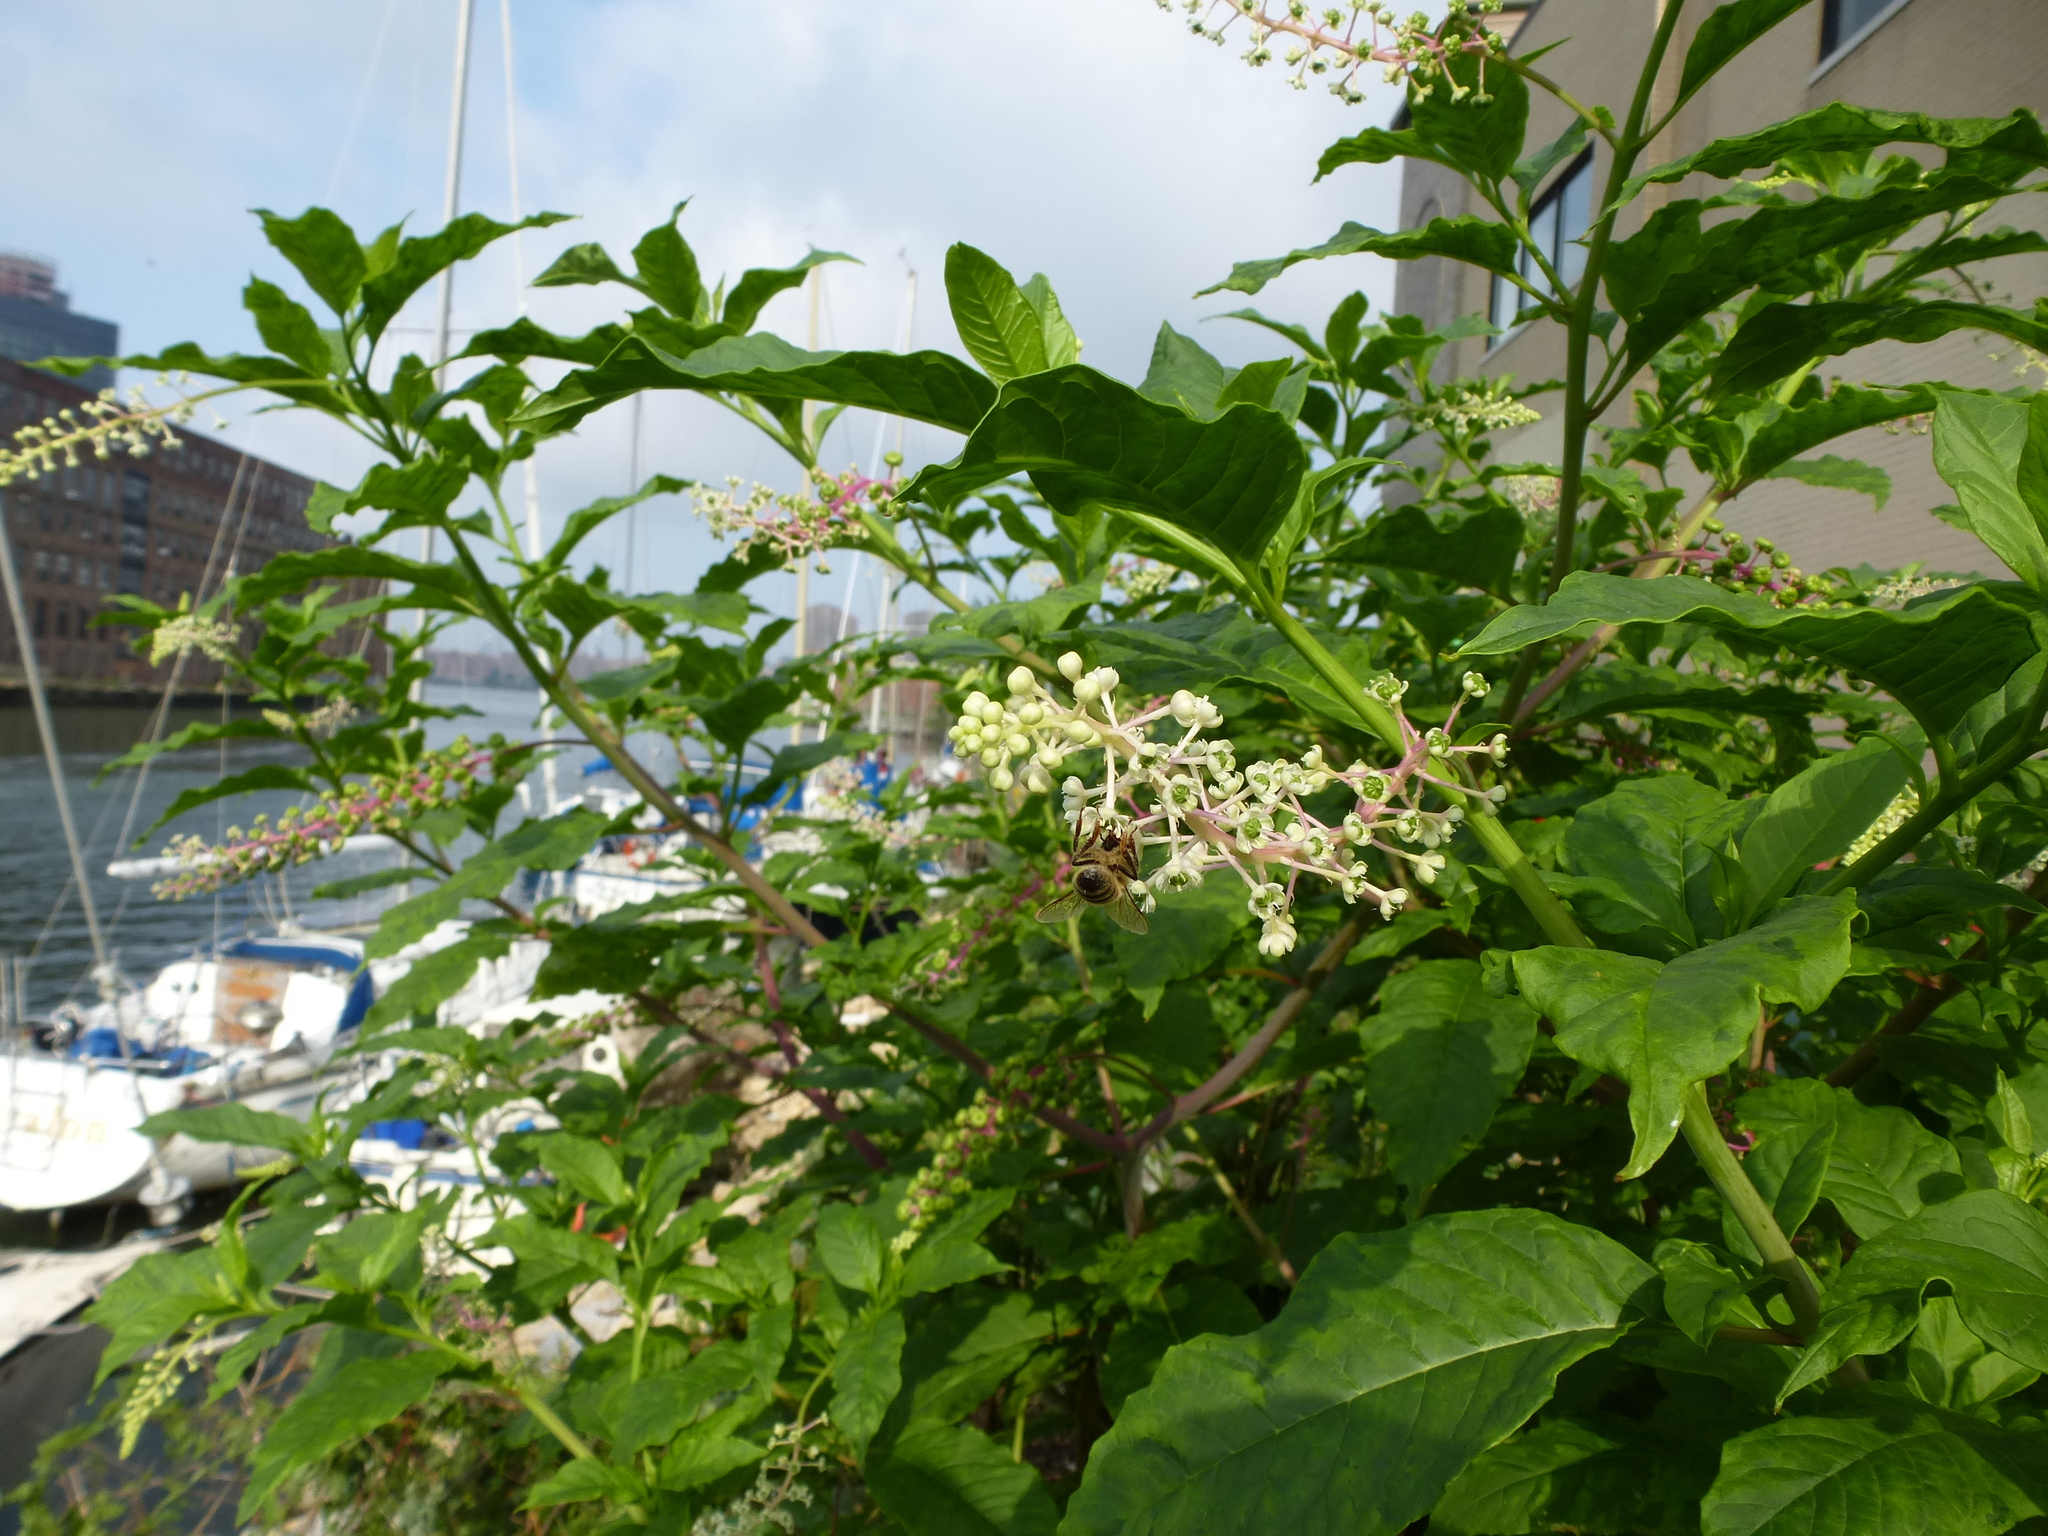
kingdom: Animalia
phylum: Arthropoda
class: Insecta
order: Hymenoptera
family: Apidae
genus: Apis
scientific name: Apis mellifera
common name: Honey bee
